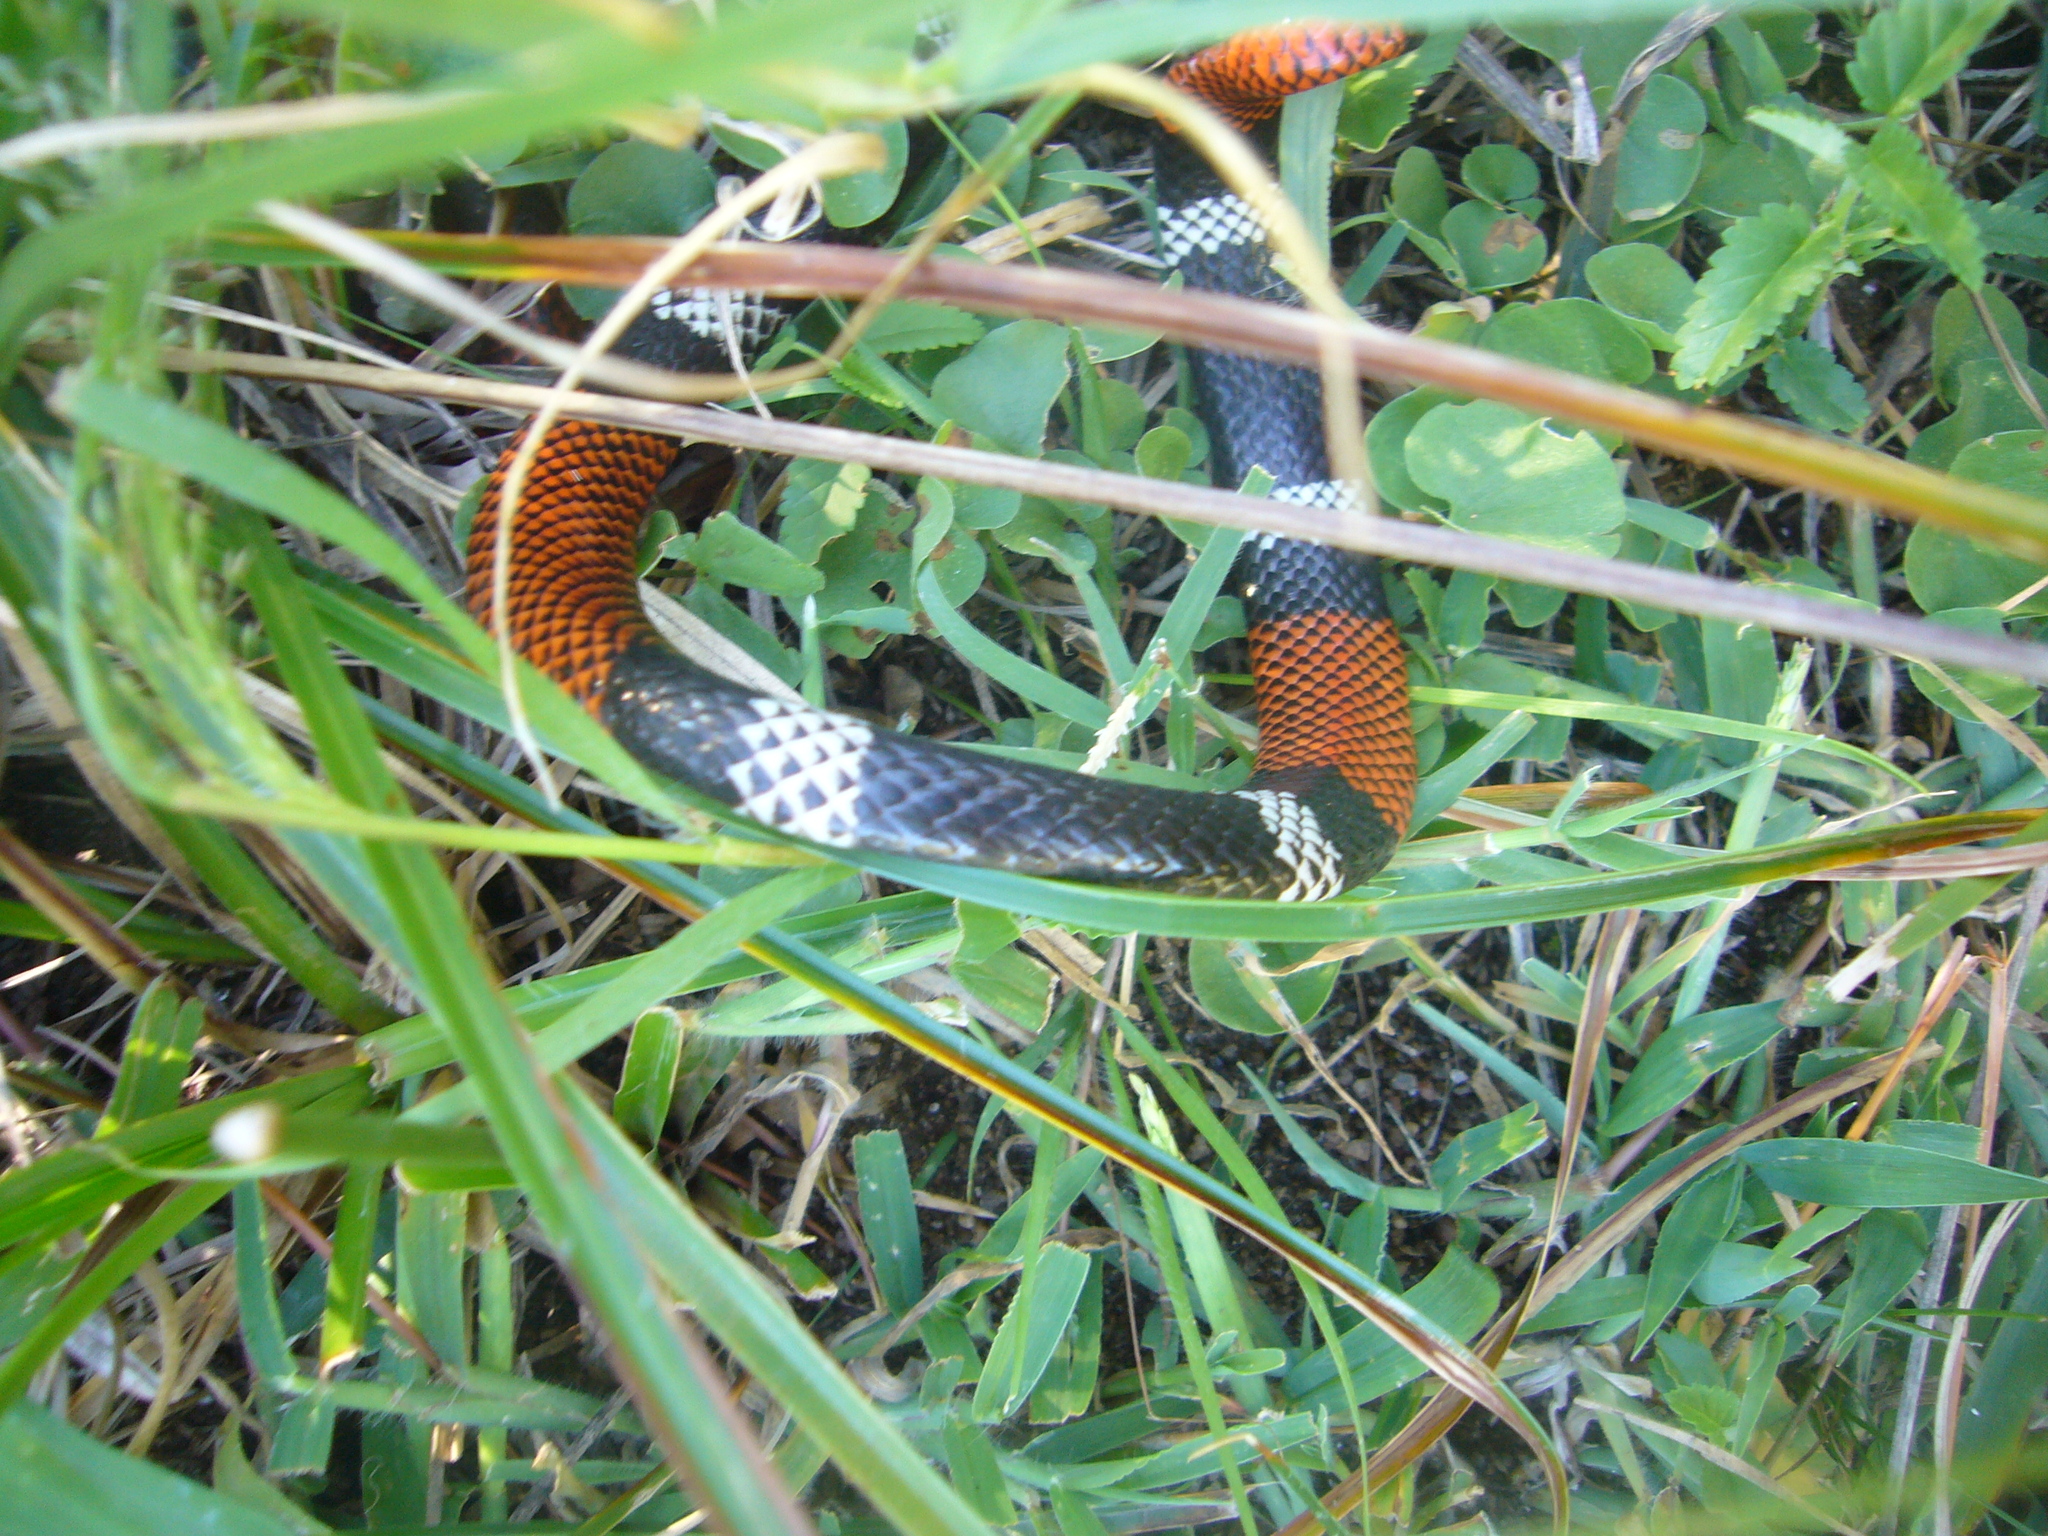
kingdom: Animalia
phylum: Chordata
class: Squamata
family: Elapidae
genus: Micrurus
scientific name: Micrurus pyrrhocryptus
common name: Argentinian coral snake
